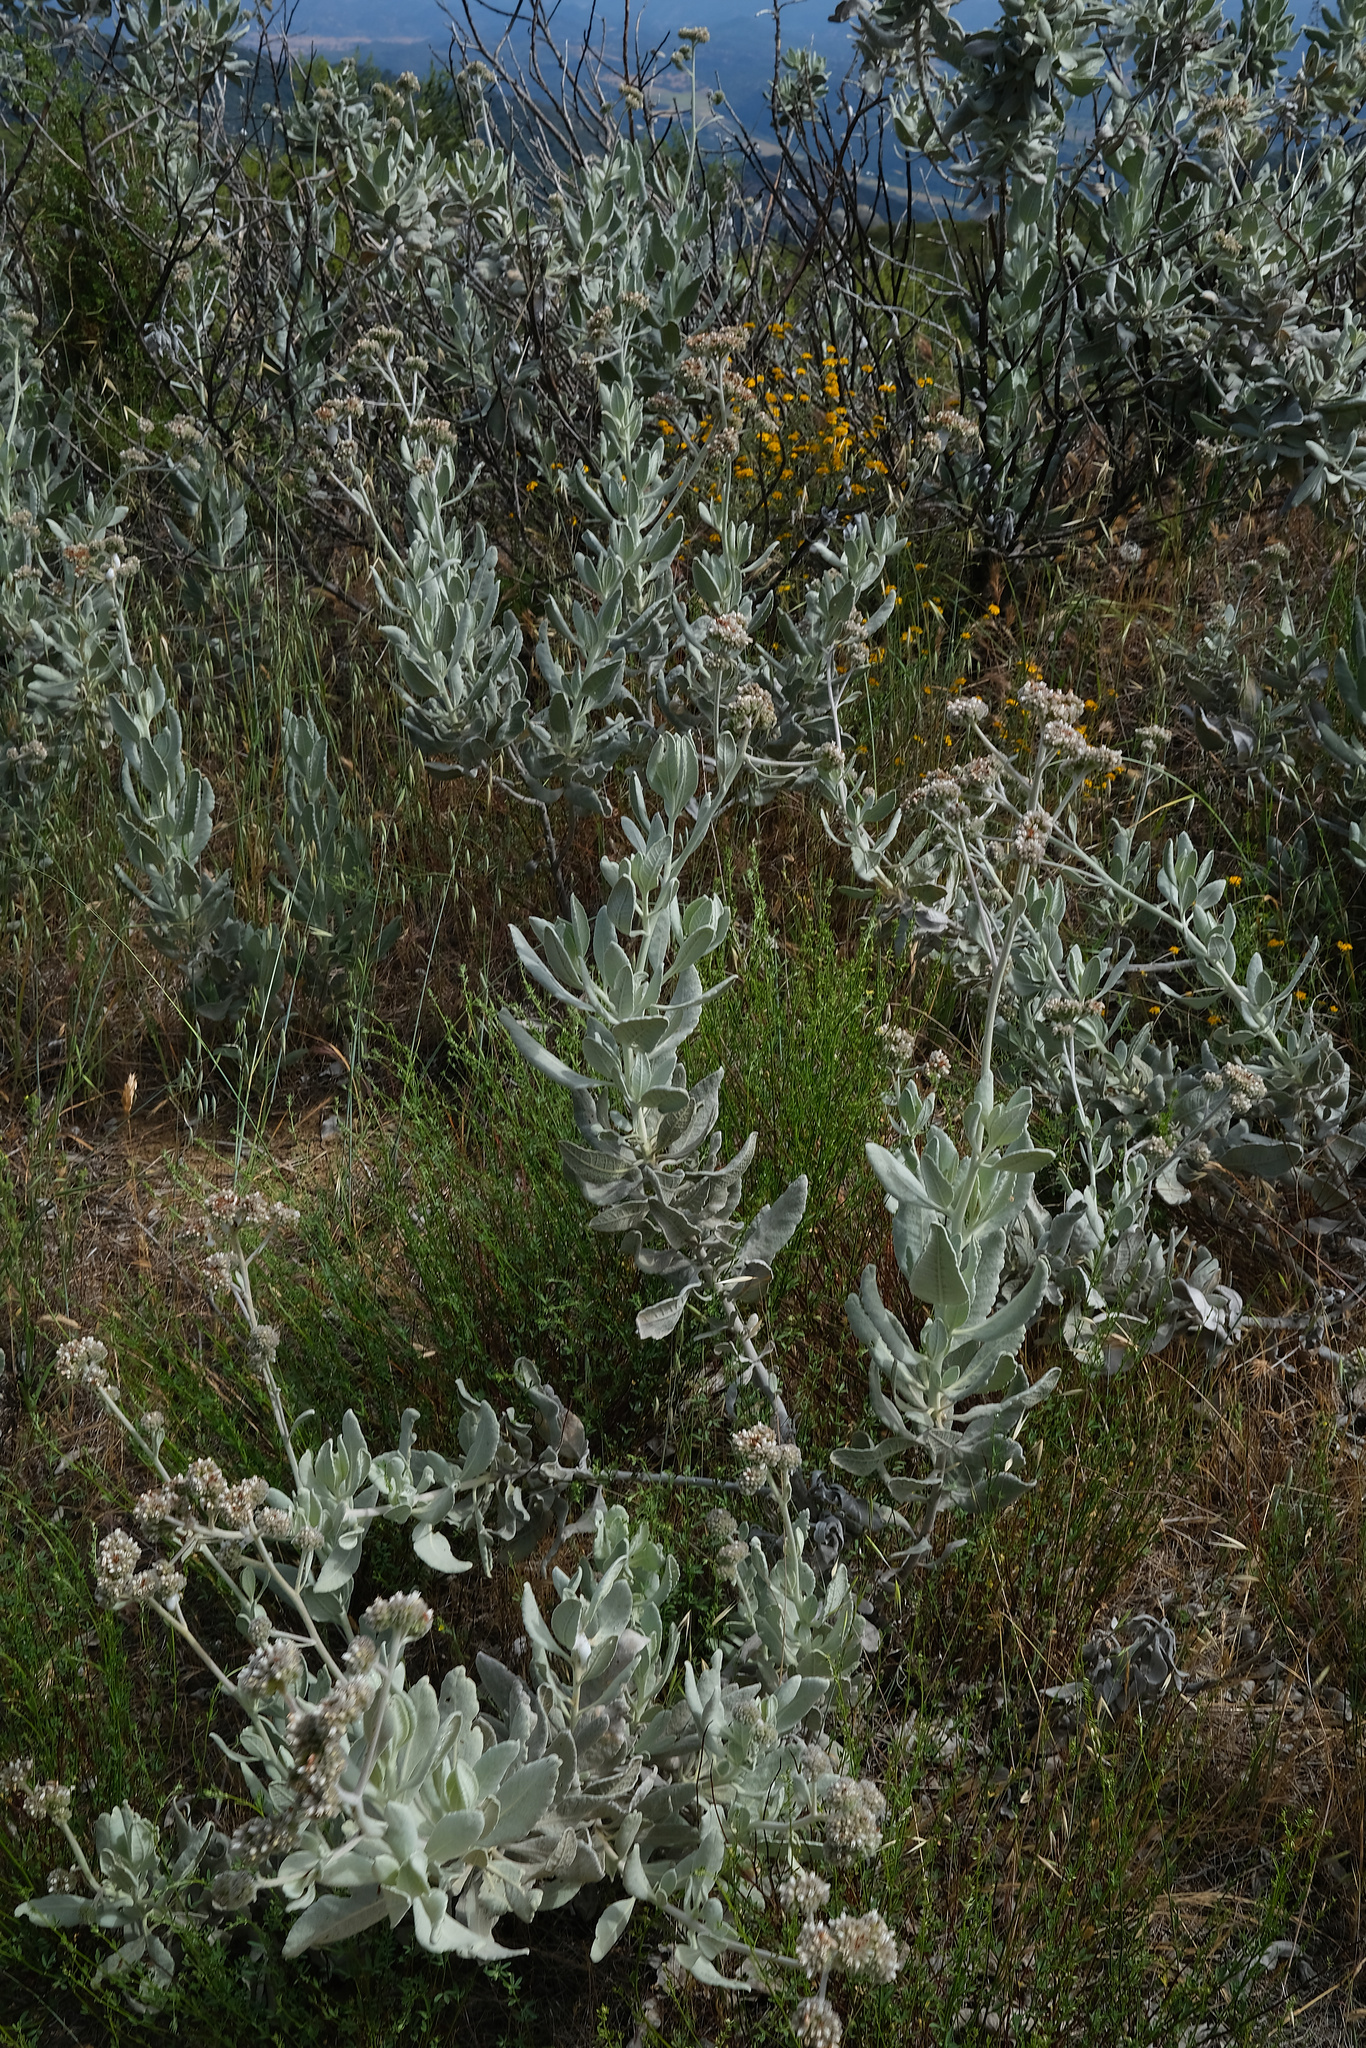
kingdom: Plantae
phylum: Tracheophyta
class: Magnoliopsida
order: Boraginales
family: Namaceae
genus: Eriodictyon
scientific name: Eriodictyon tomentosum
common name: Woolly yerba-santa
